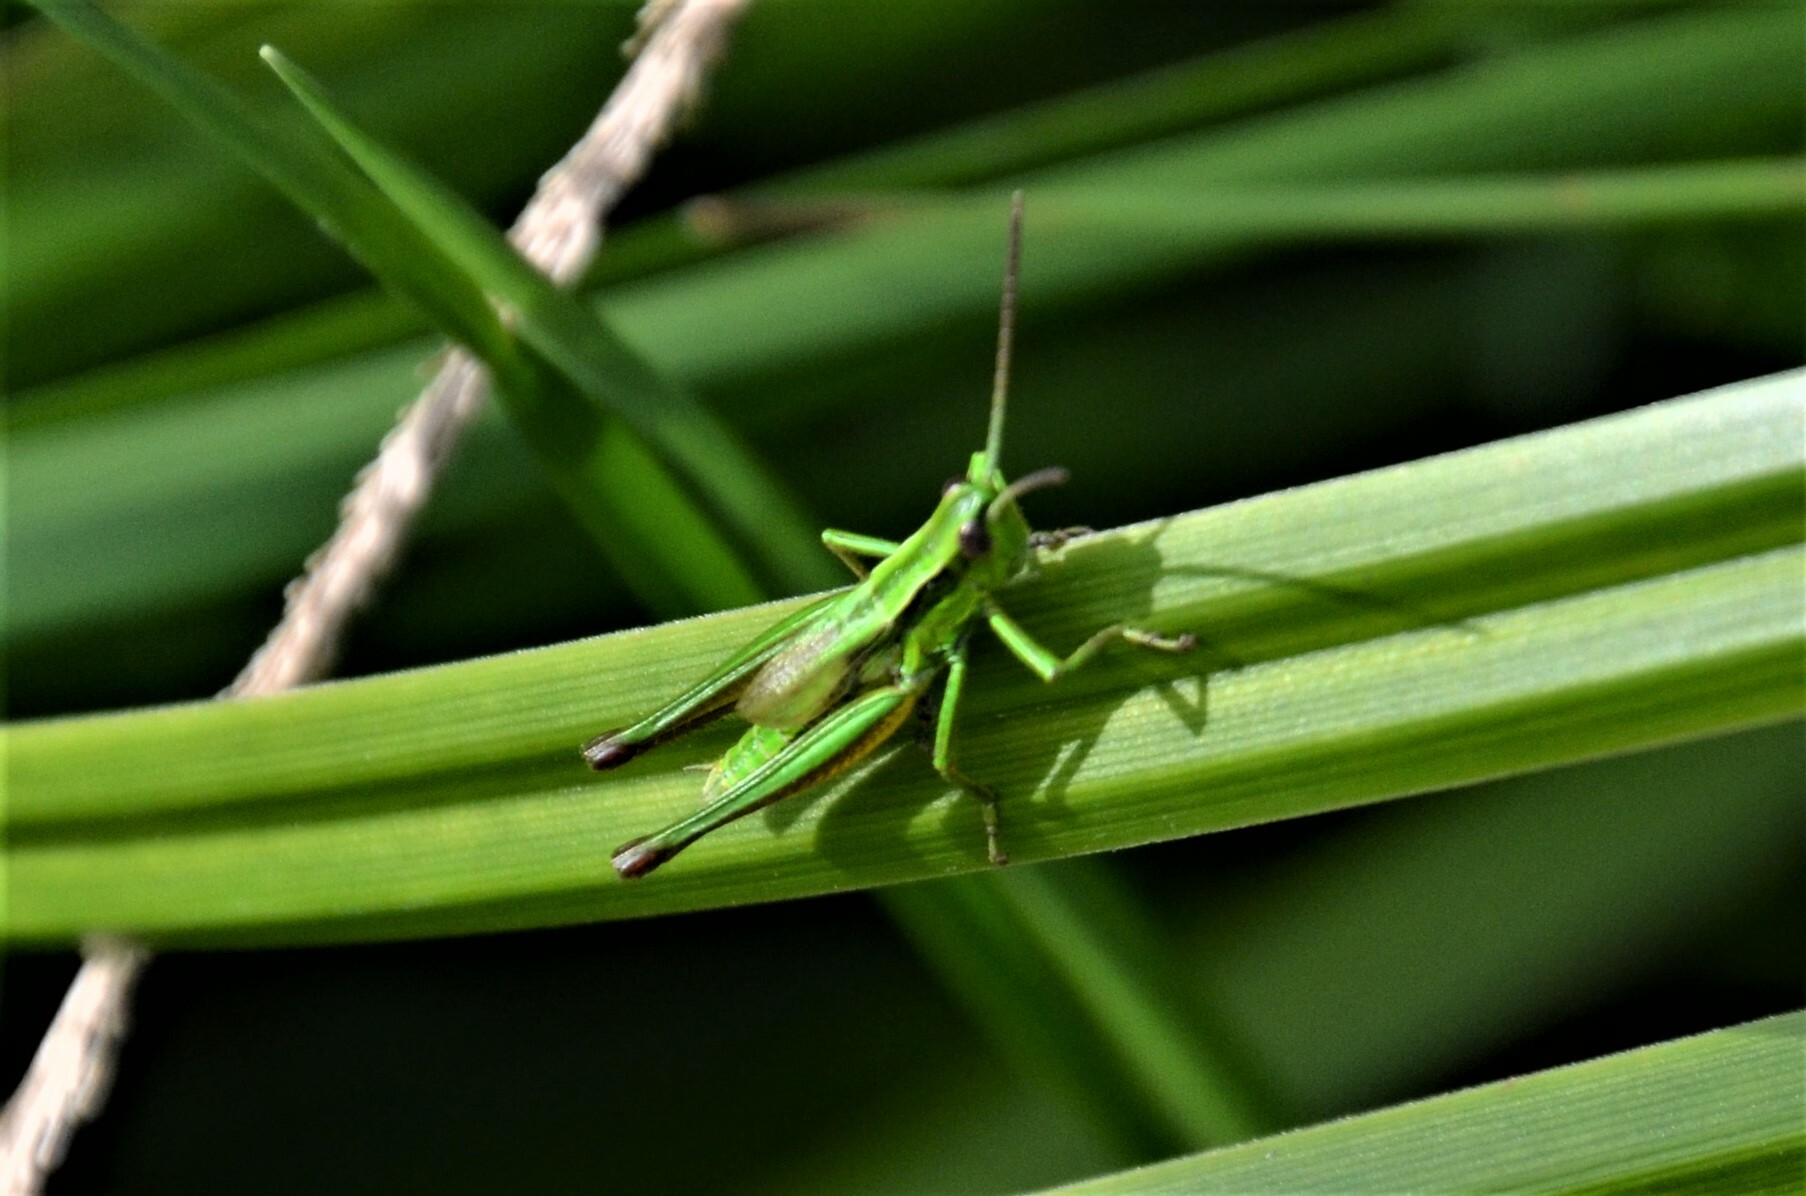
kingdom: Animalia
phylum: Arthropoda
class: Insecta
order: Orthoptera
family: Acrididae
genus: Euthystira
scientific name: Euthystira brachyptera
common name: Small gold grasshopper
